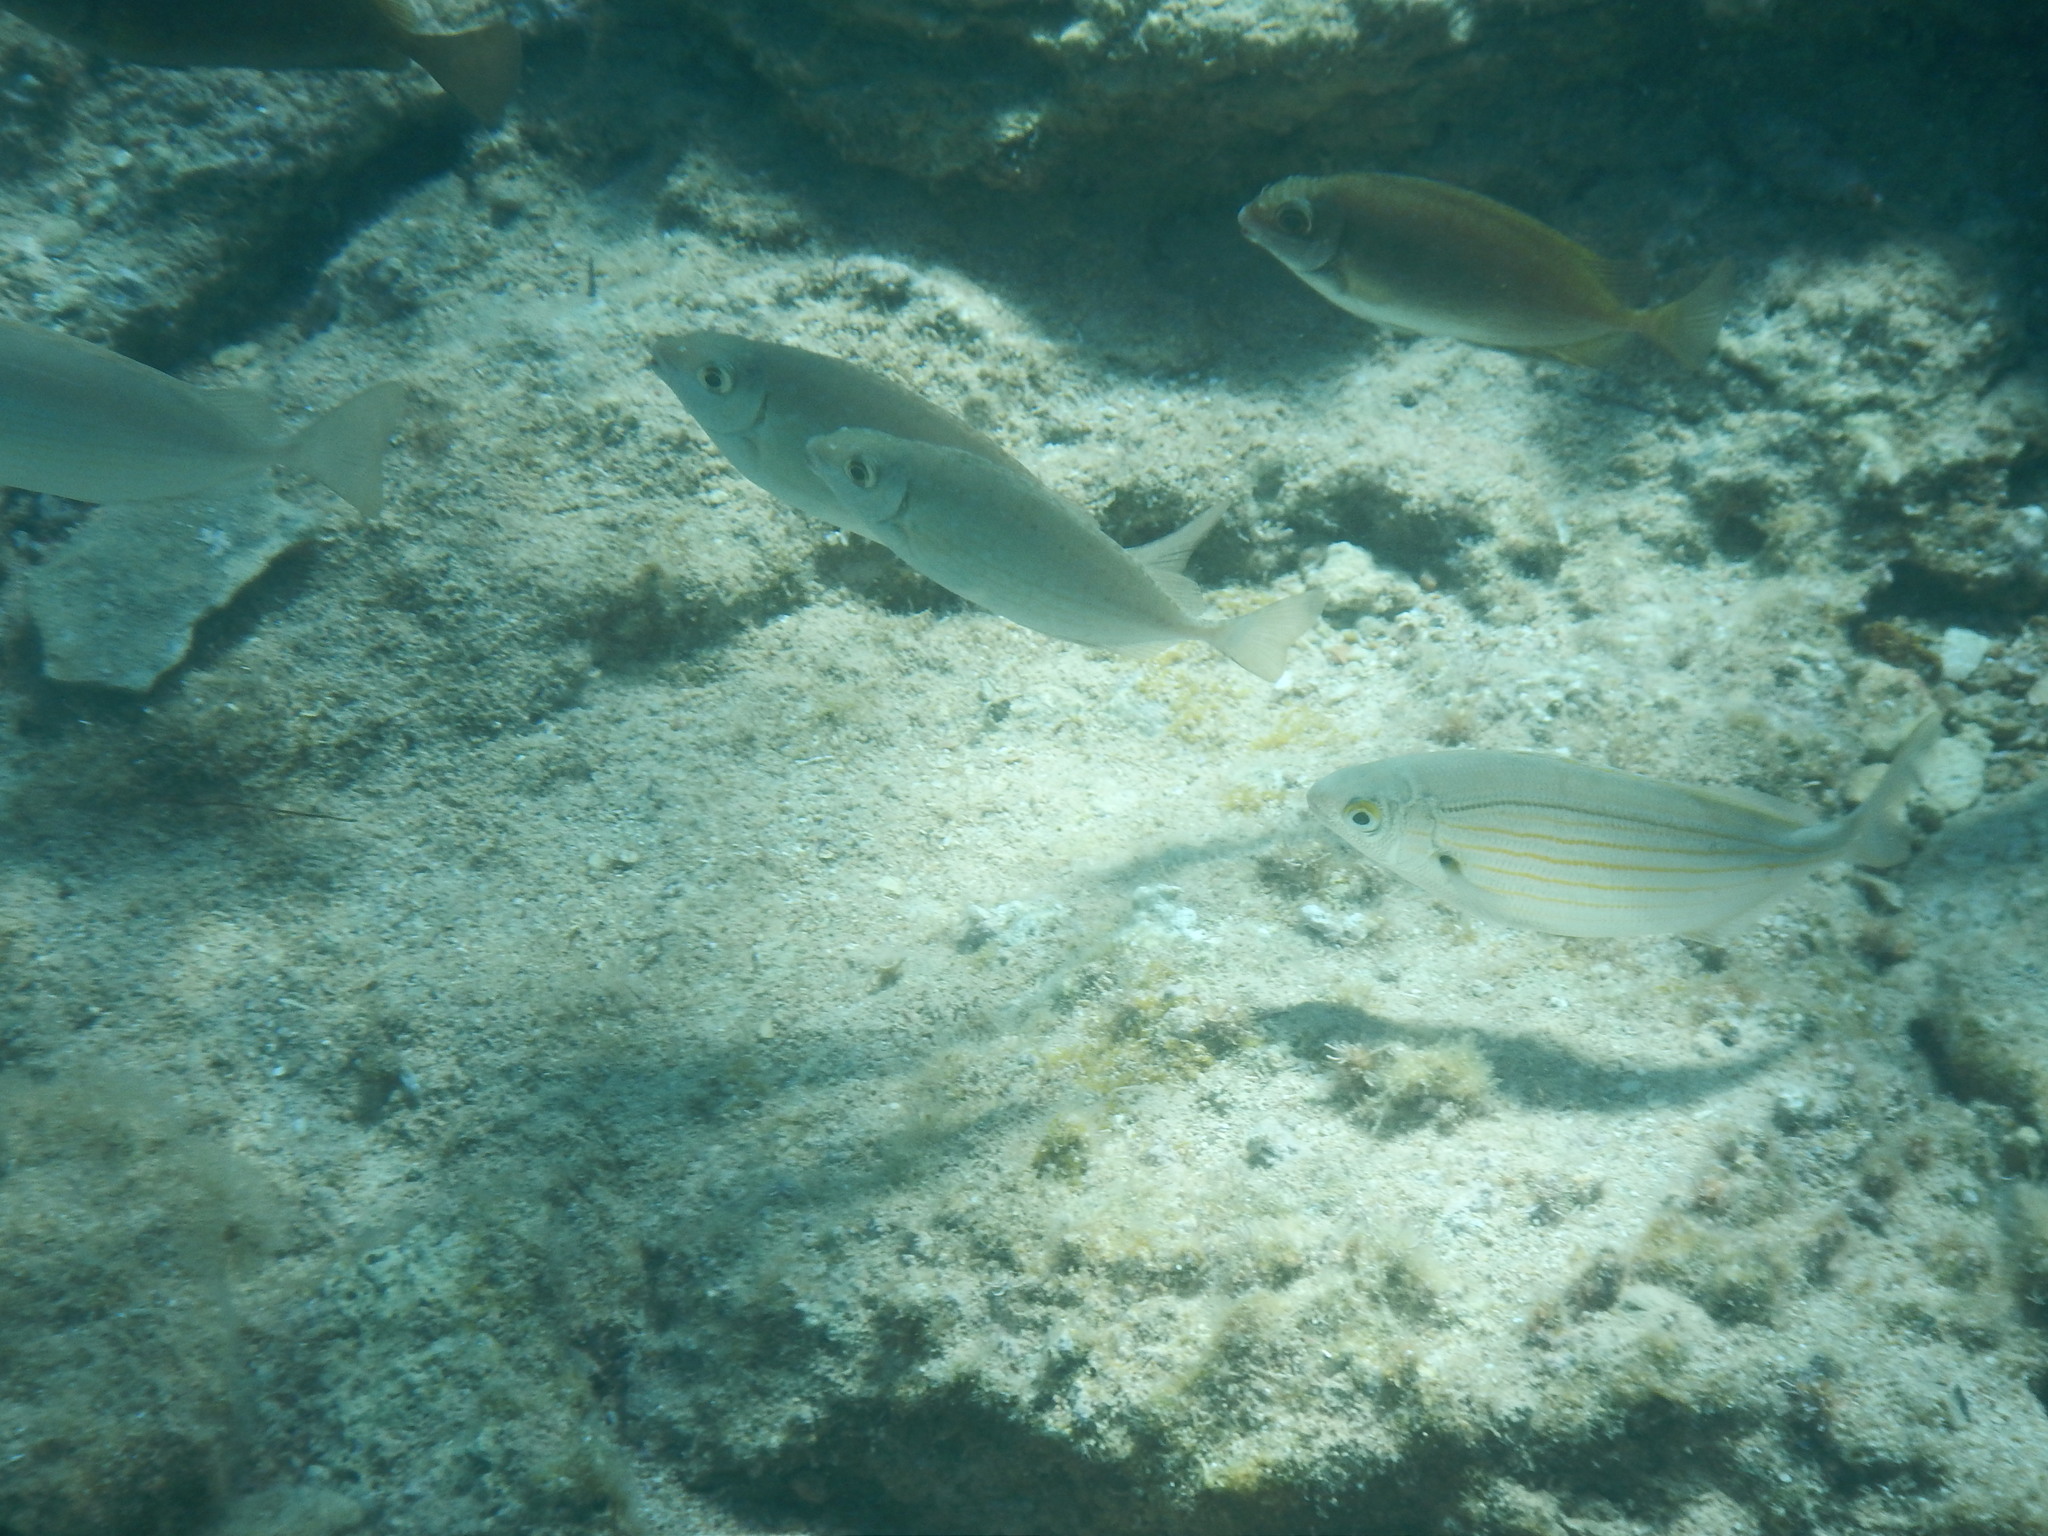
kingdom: Animalia
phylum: Chordata
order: Perciformes
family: Siganidae
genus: Siganus
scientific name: Siganus rivulatus
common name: Marbled spinefoot
